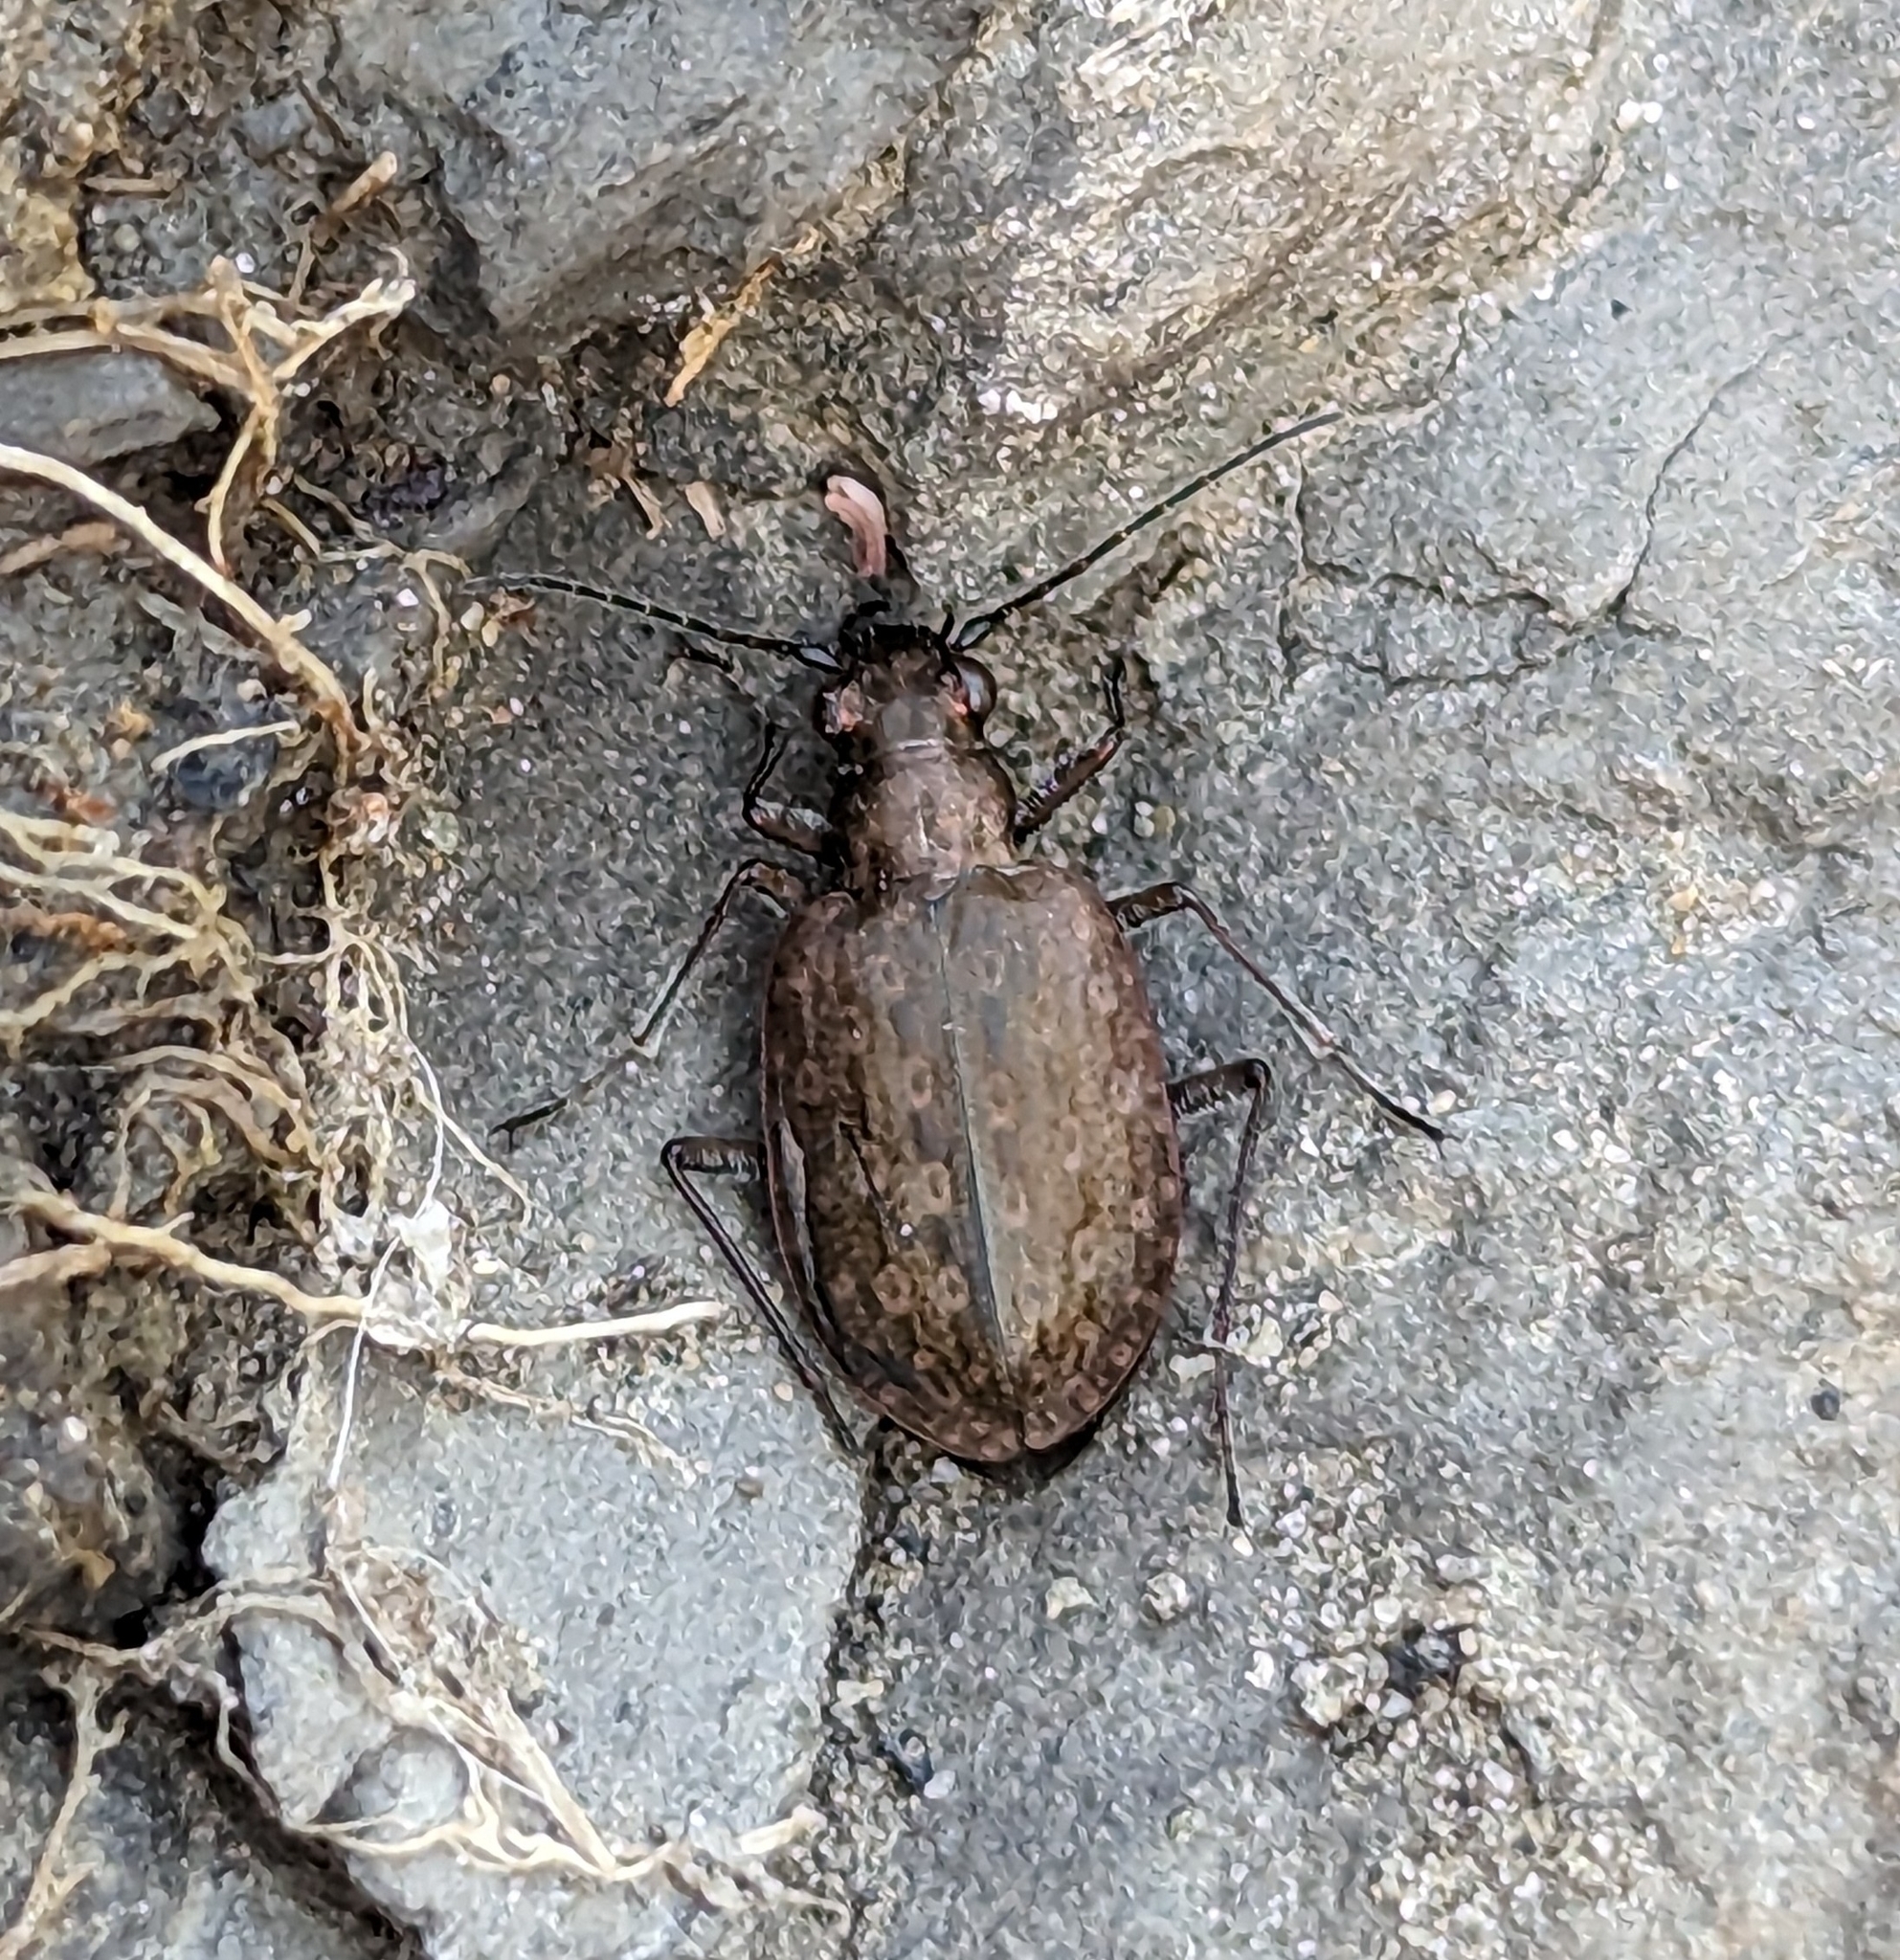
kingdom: Animalia
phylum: Arthropoda
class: Insecta
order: Coleoptera
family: Carabidae
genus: Opisthius
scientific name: Opisthius richardsoni
